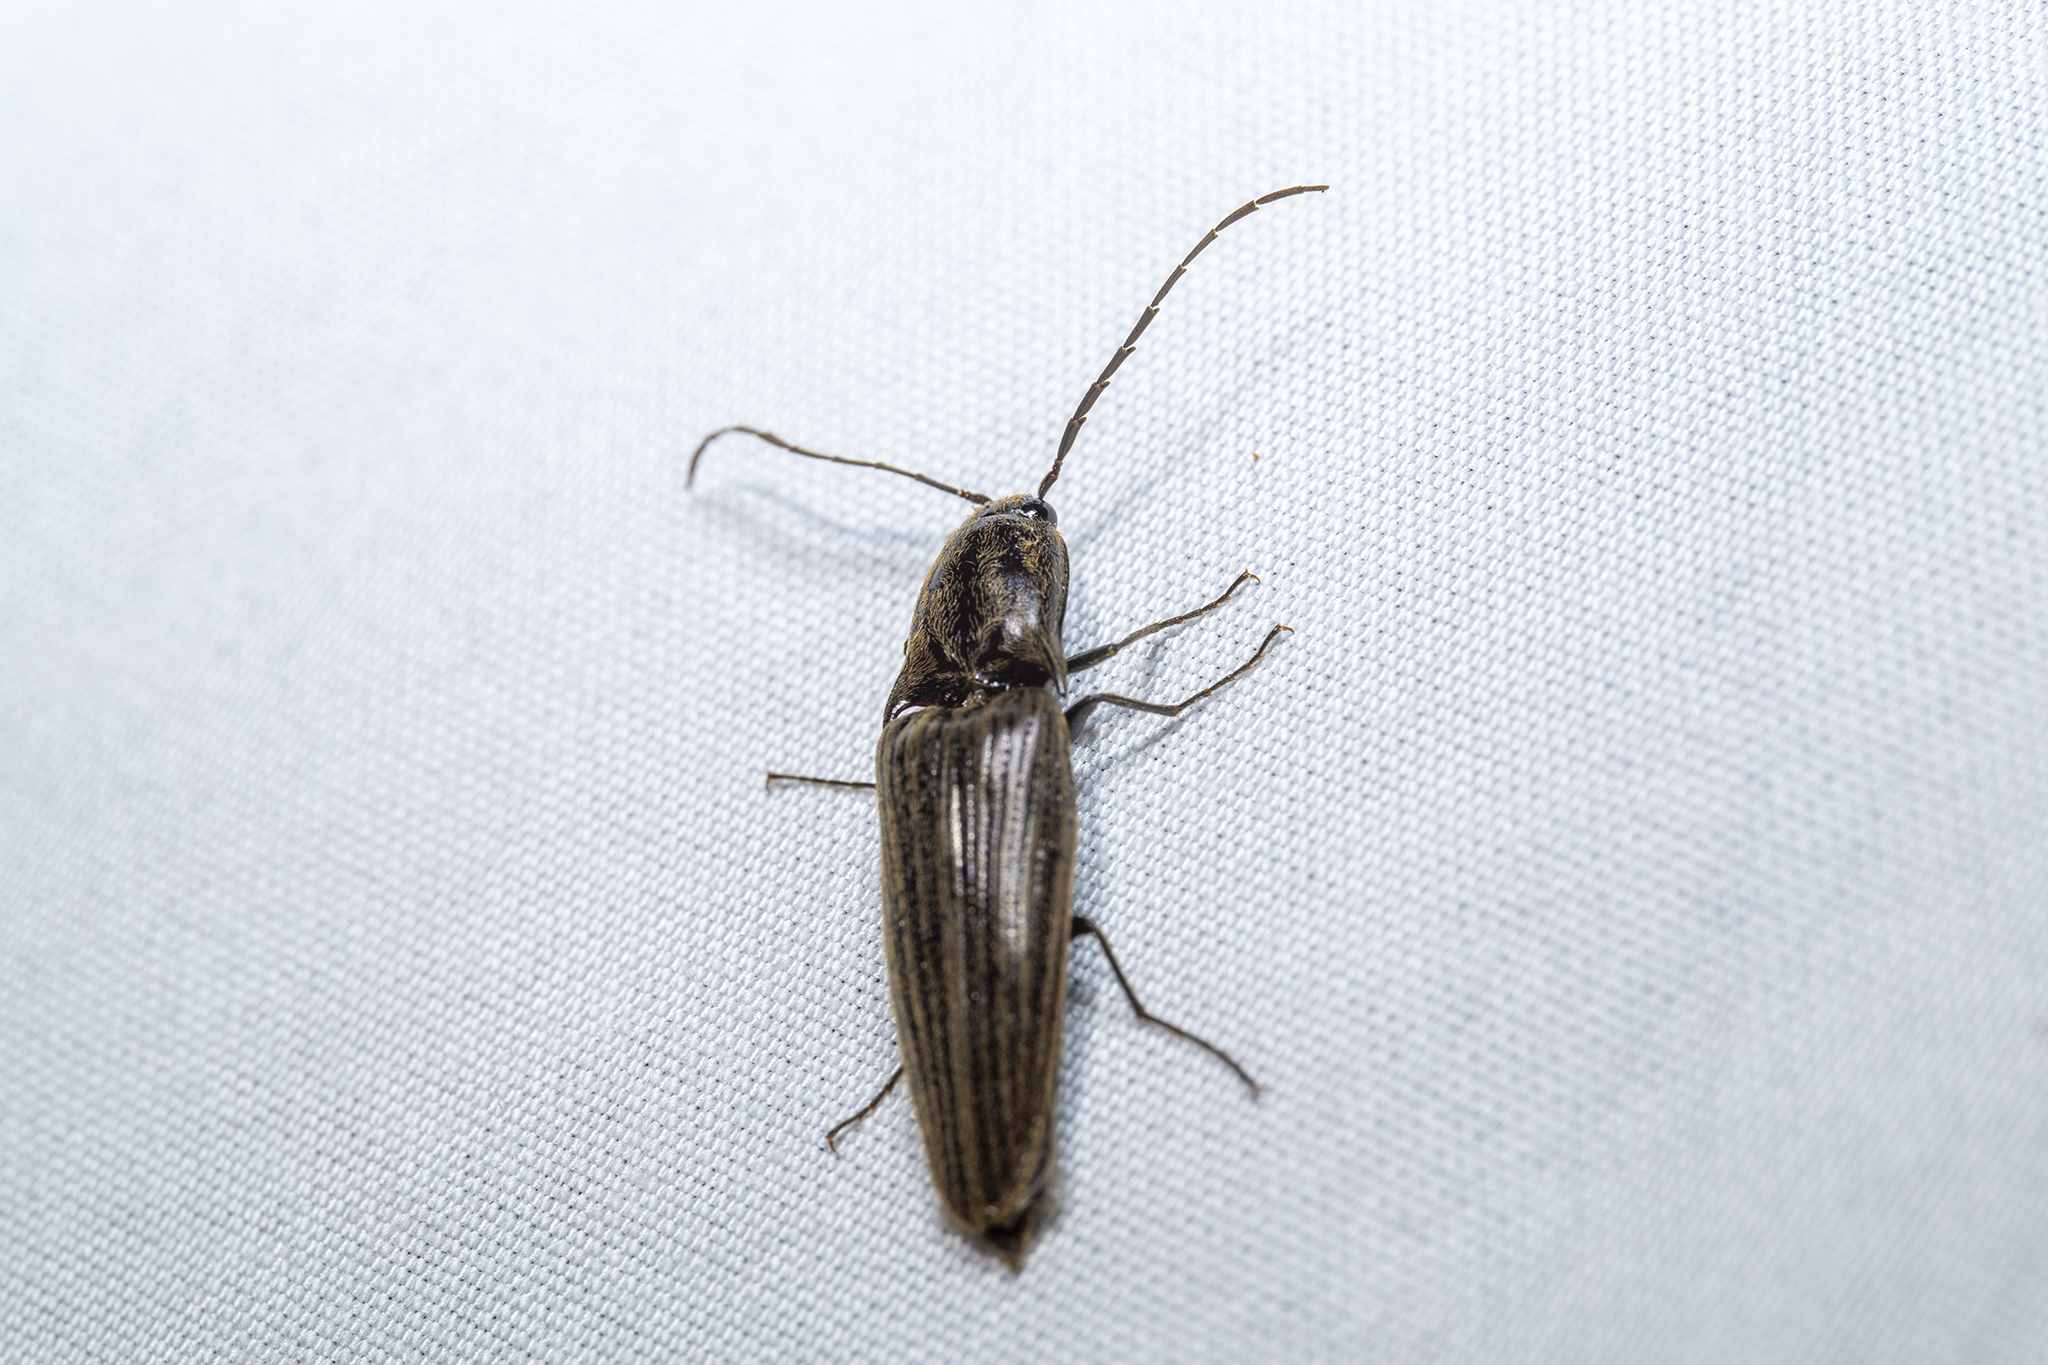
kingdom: Animalia
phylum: Arthropoda
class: Insecta
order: Coleoptera
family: Elateridae
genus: Thoramus
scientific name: Thoramus
